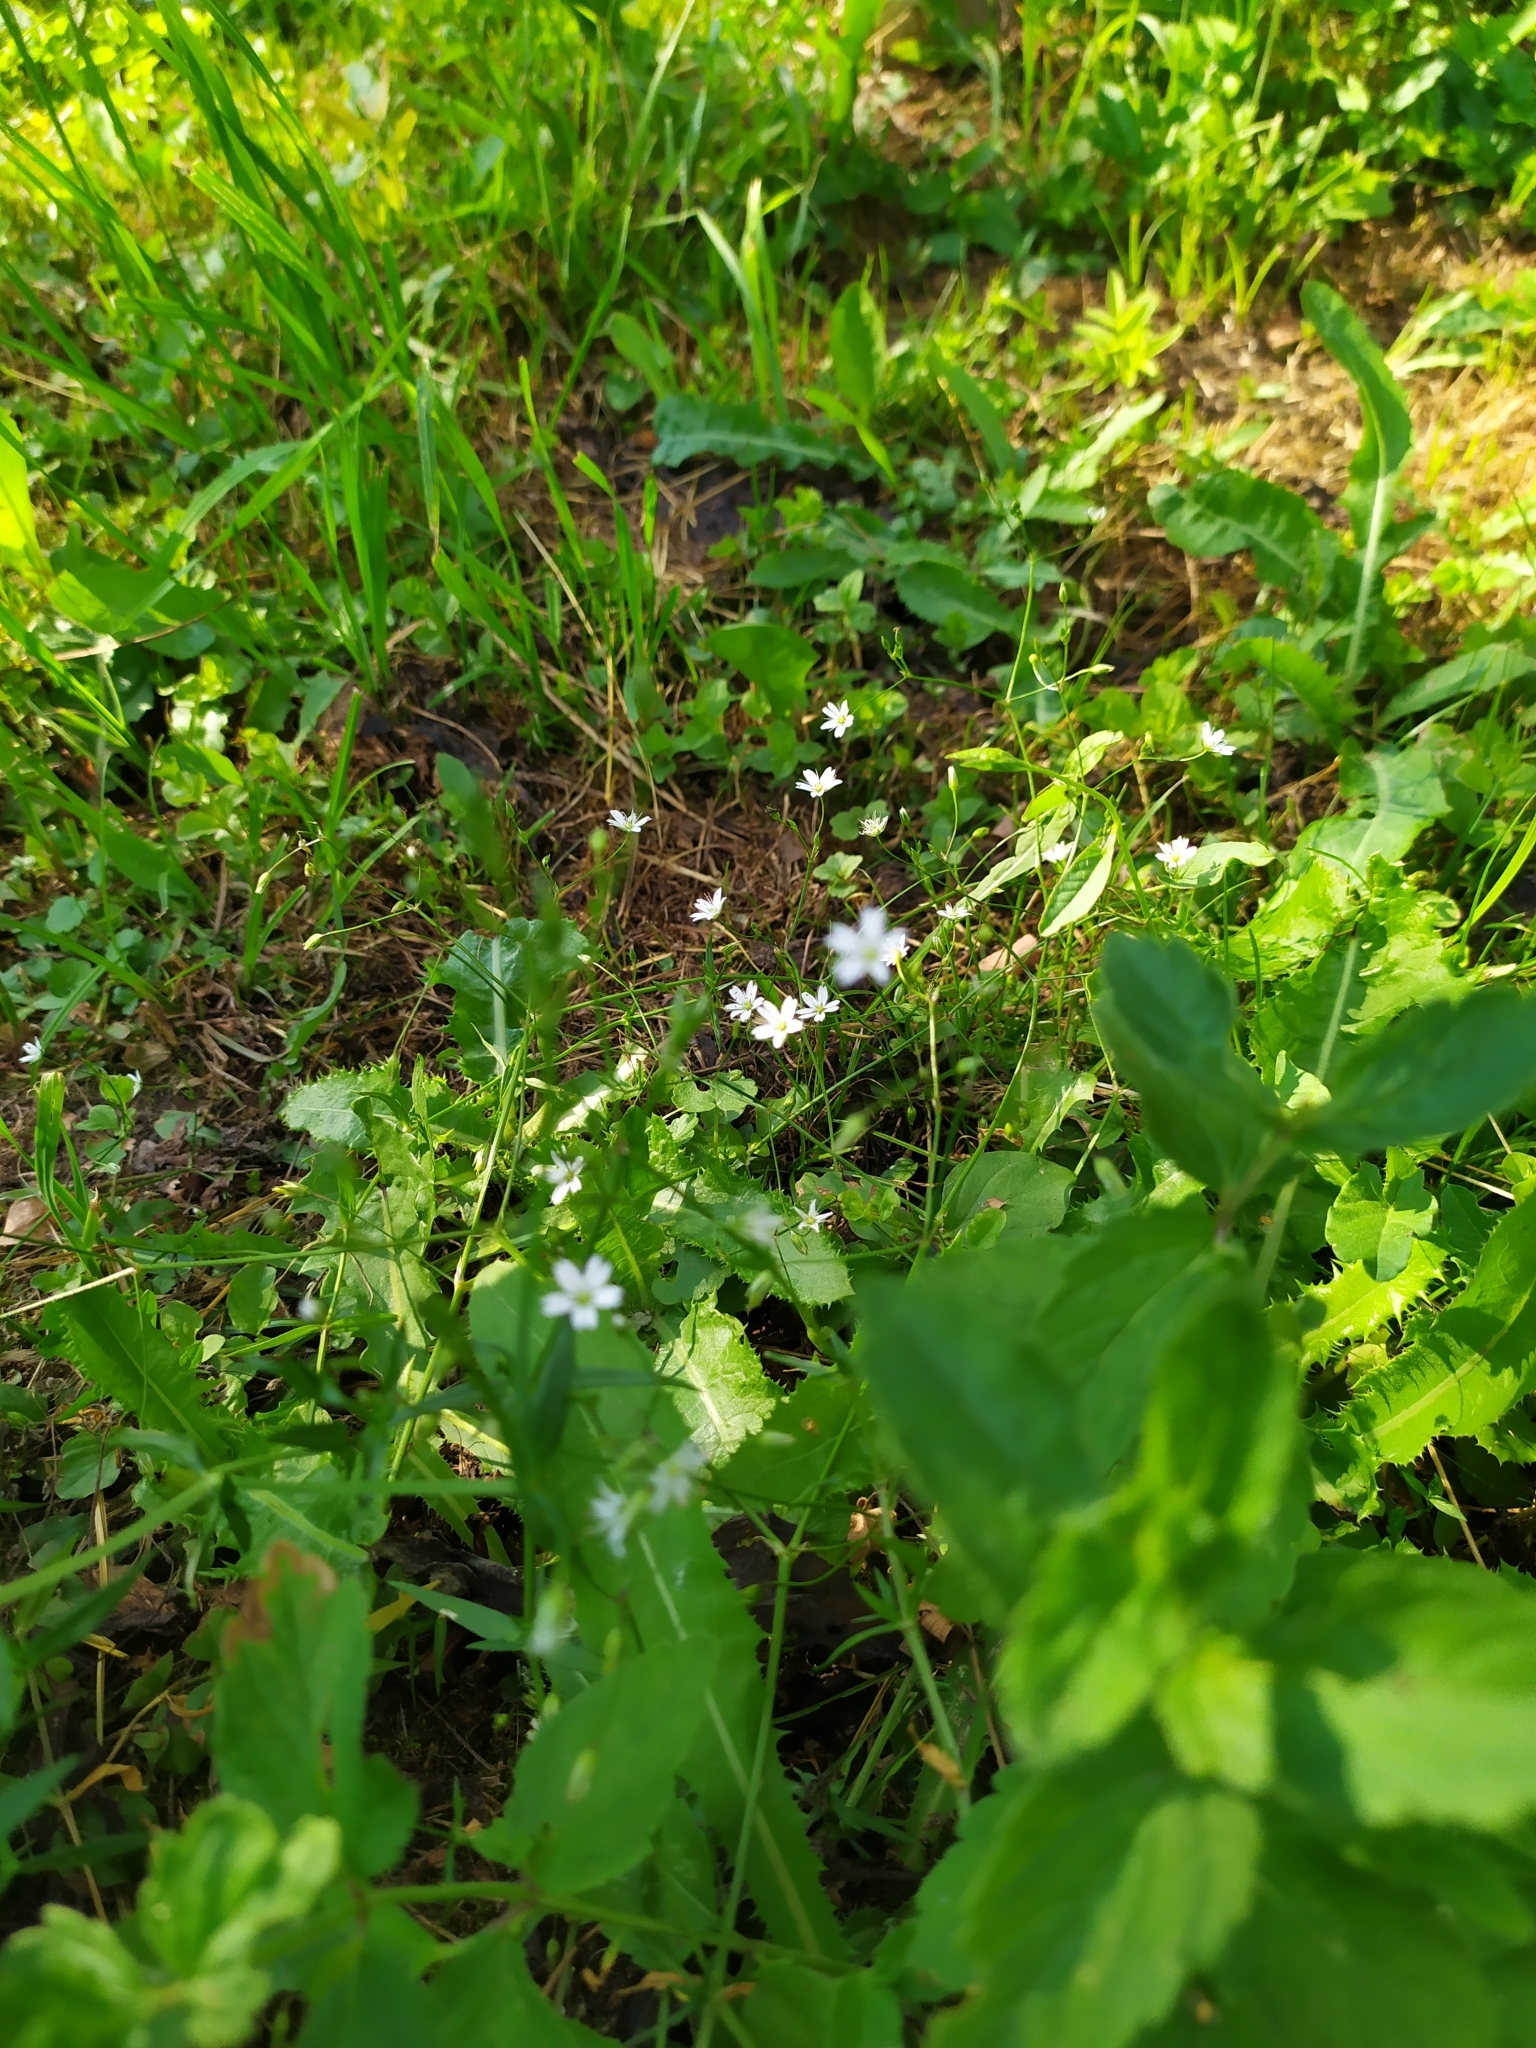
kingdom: Plantae
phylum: Tracheophyta
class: Magnoliopsida
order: Caryophyllales
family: Caryophyllaceae
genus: Stellaria
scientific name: Stellaria graminea
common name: Grass-like starwort
